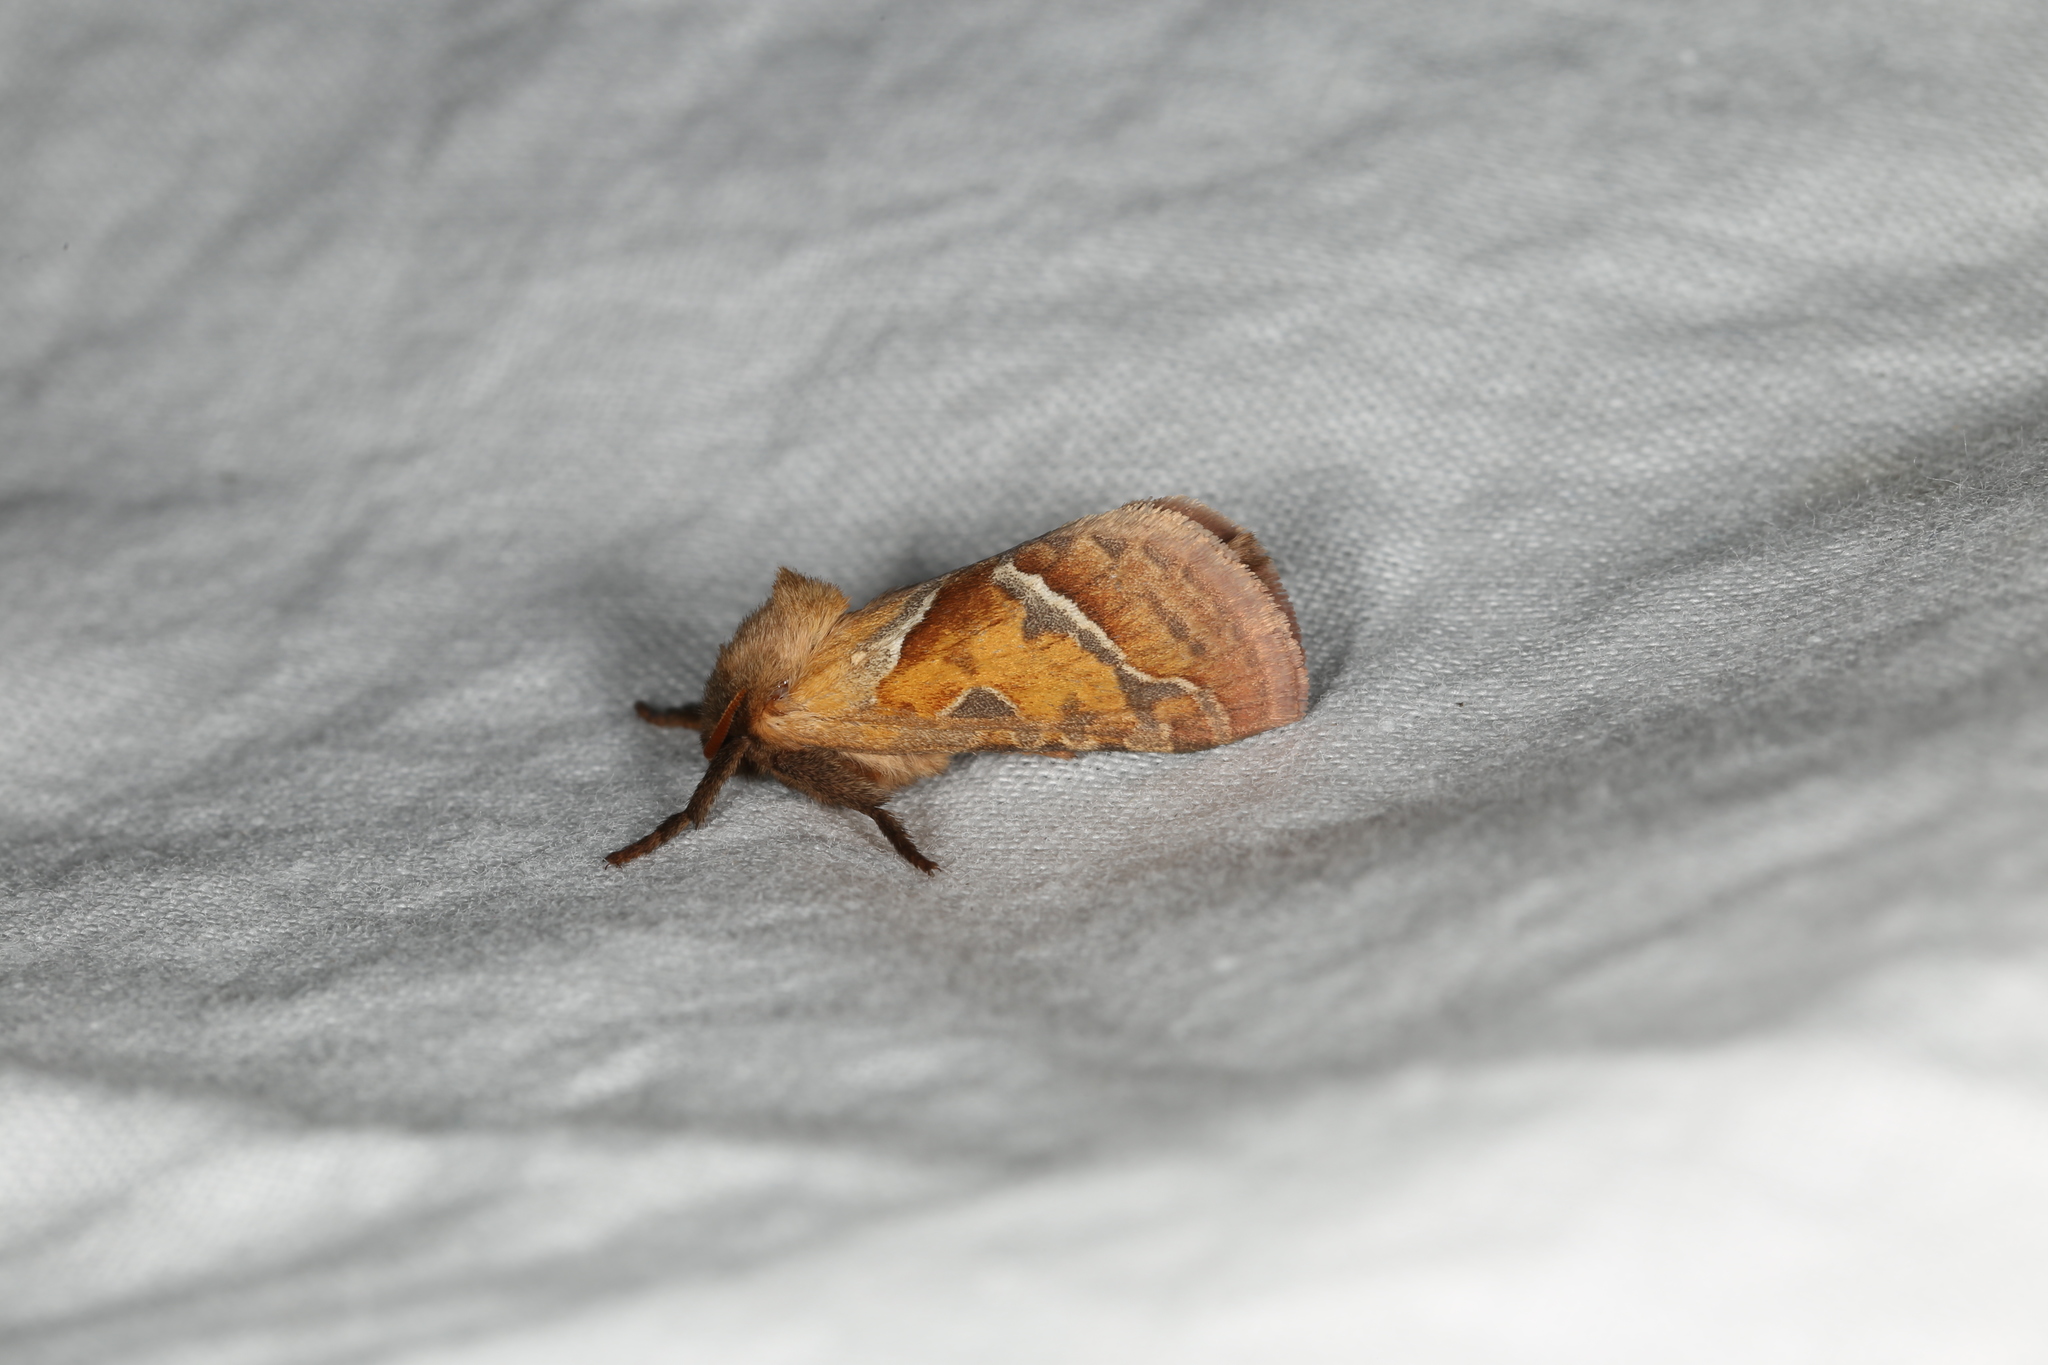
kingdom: Animalia
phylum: Arthropoda
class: Insecta
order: Lepidoptera
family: Hepialidae
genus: Triodia
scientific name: Triodia sylvina
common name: Orange swift
